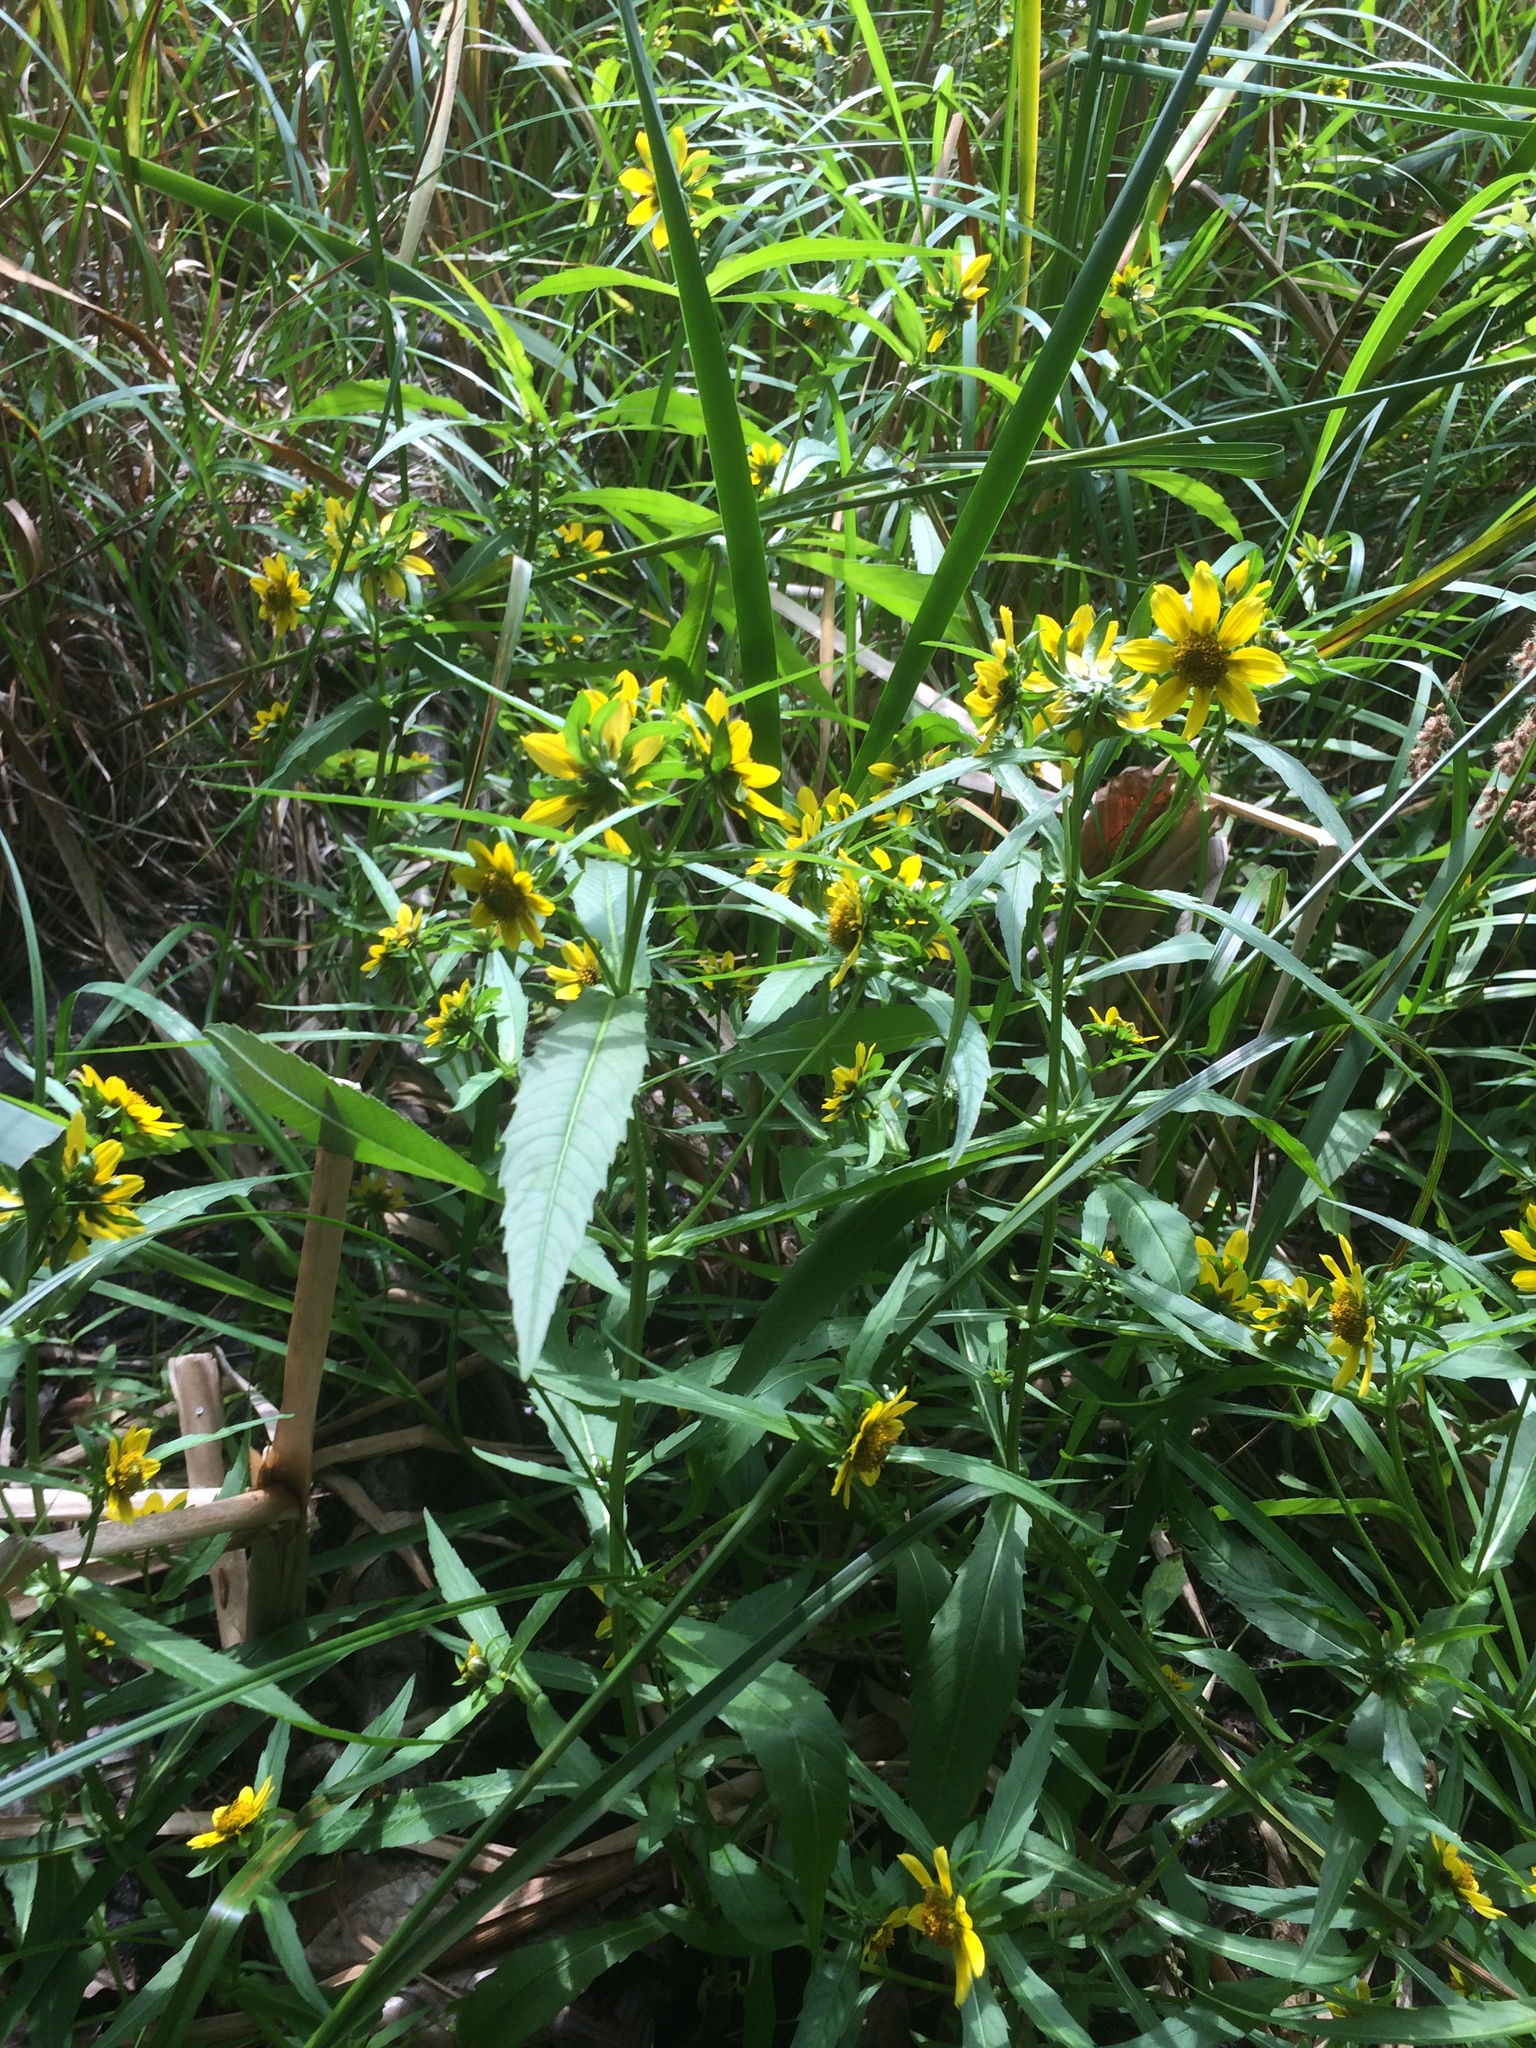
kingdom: Plantae
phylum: Tracheophyta
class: Magnoliopsida
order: Asterales
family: Asteraceae
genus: Bidens
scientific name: Bidens cernua
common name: Nodding bur-marigold
